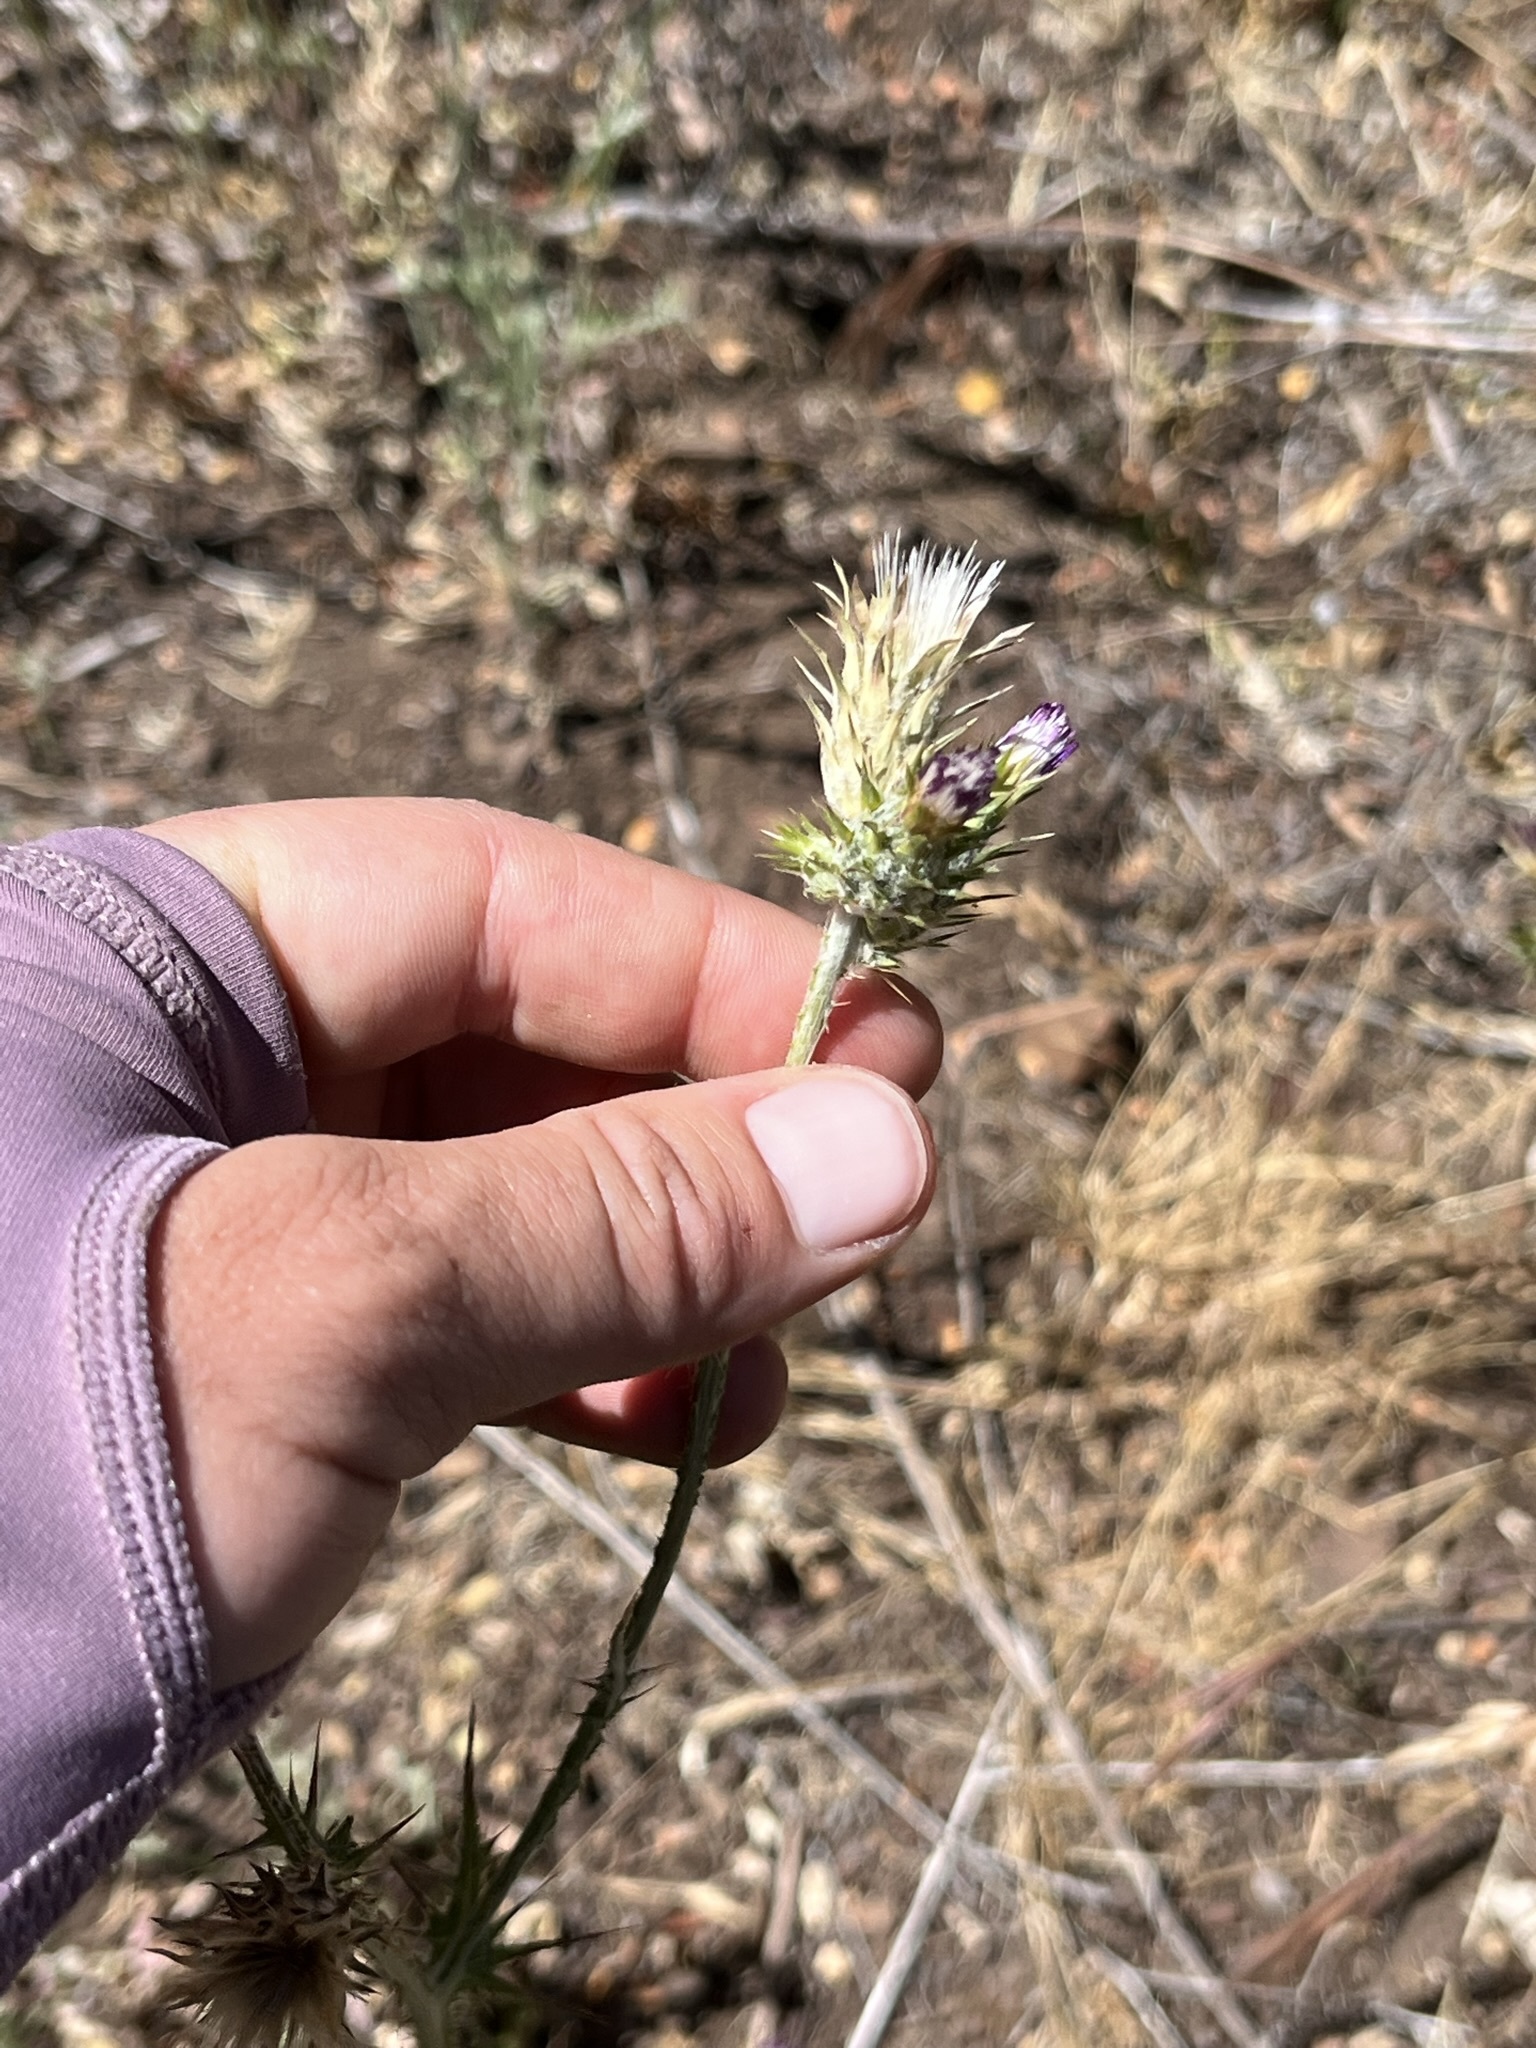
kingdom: Plantae
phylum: Tracheophyta
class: Magnoliopsida
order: Asterales
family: Asteraceae
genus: Carduus
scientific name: Carduus pycnocephalus
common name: Plymouth thistle
